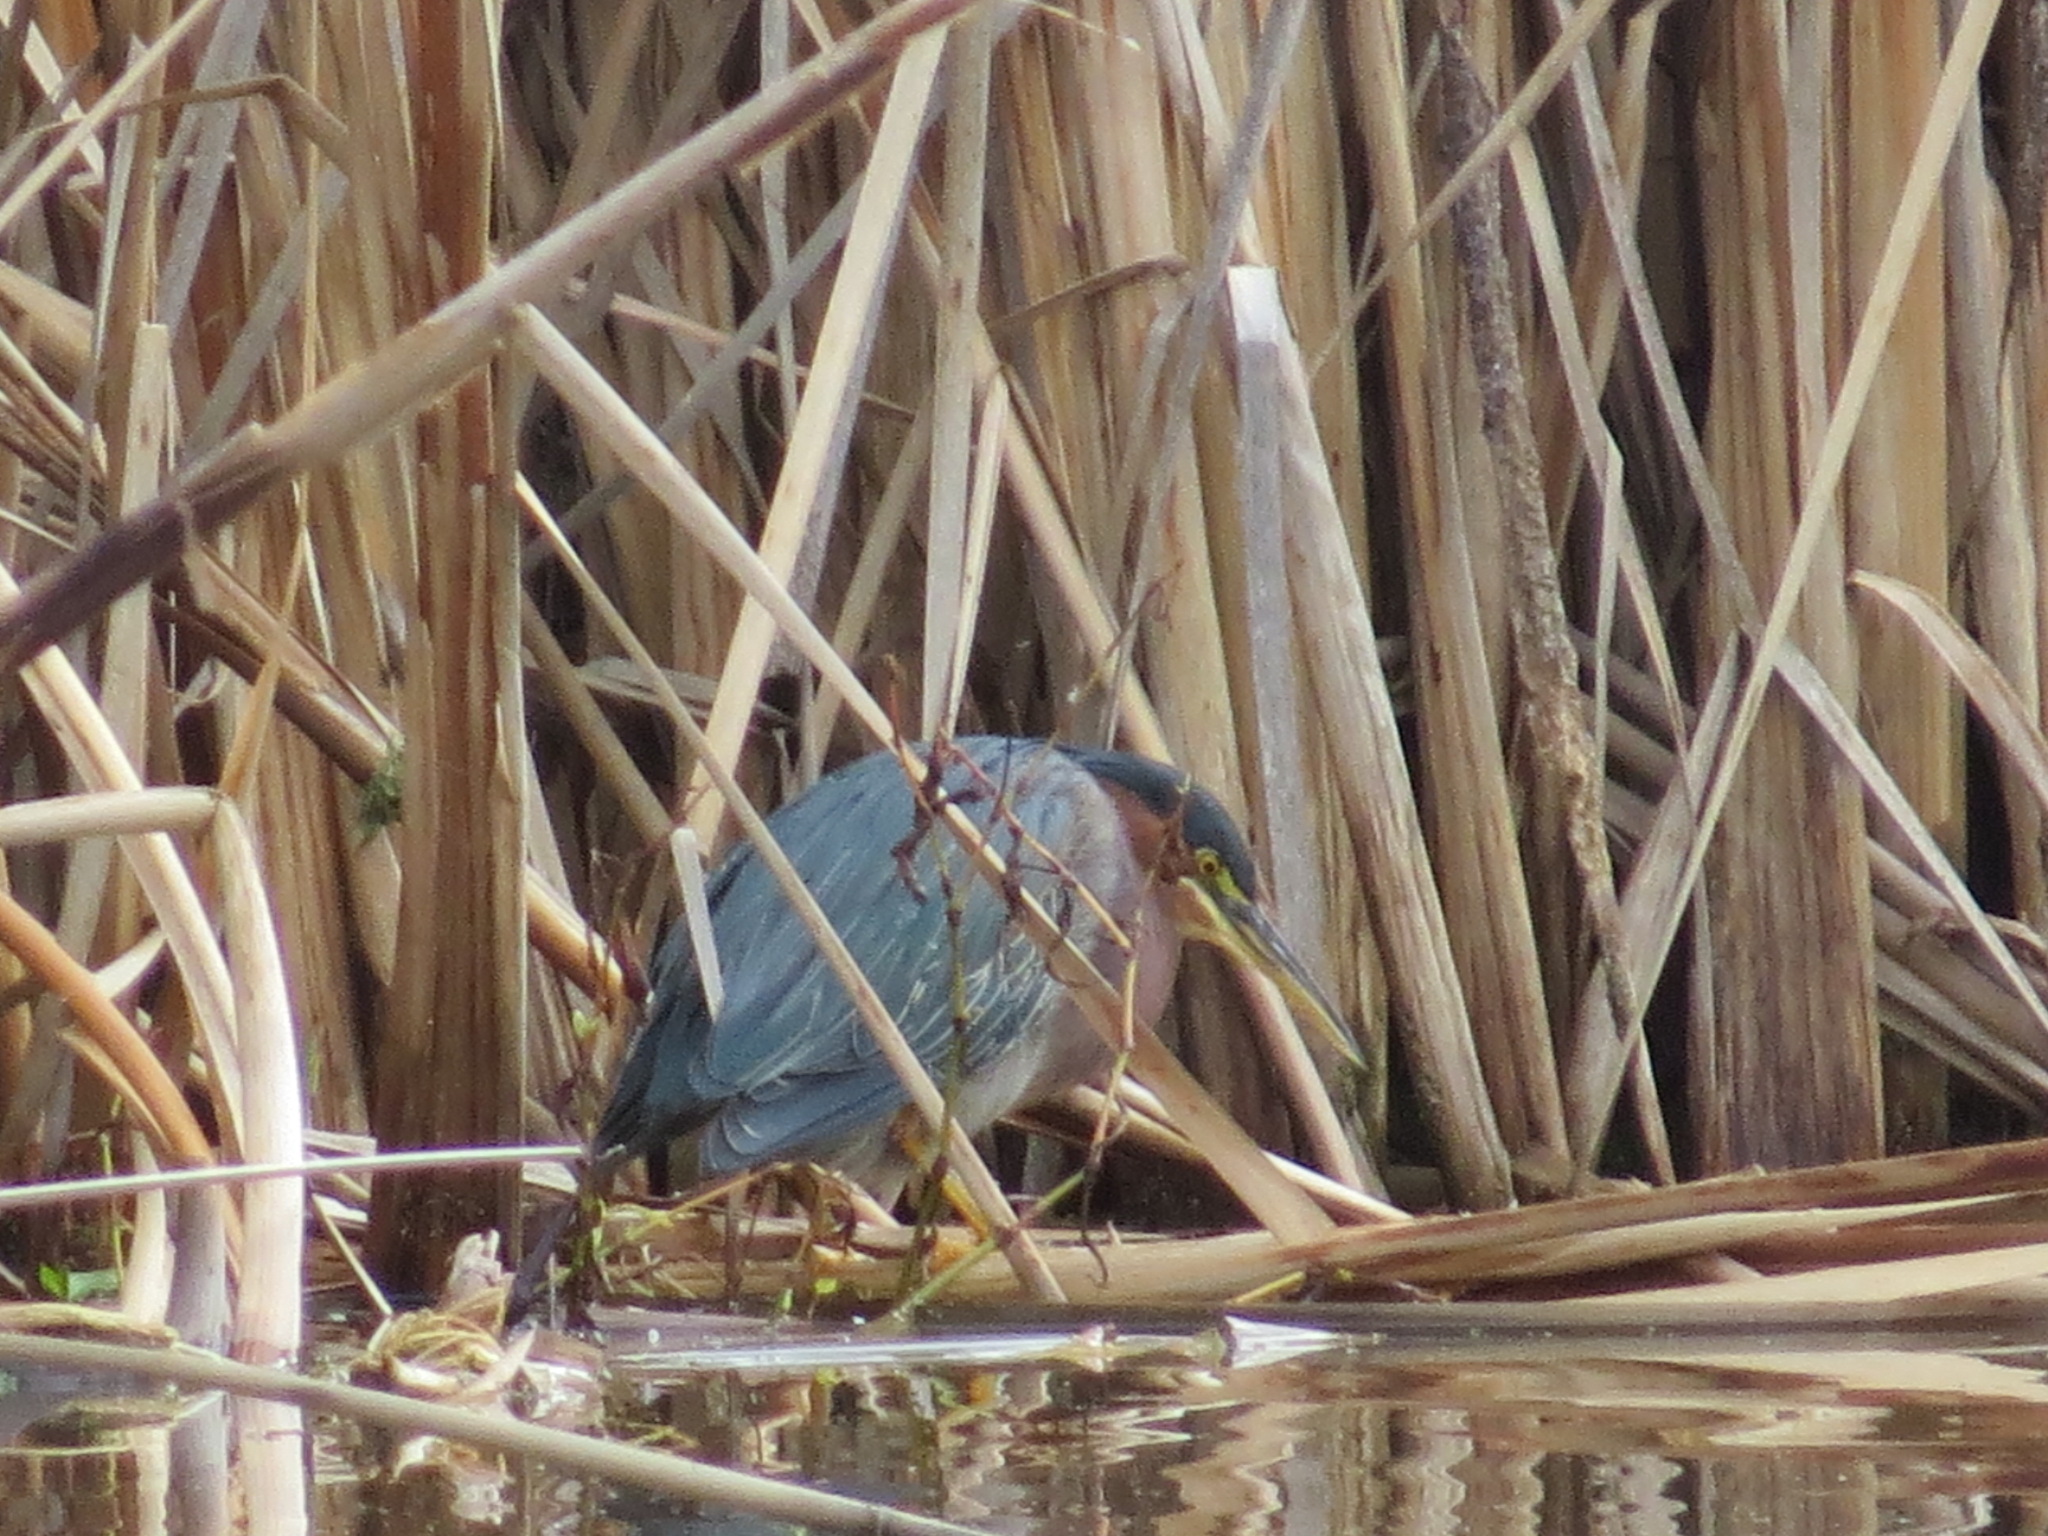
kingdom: Animalia
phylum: Chordata
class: Aves
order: Pelecaniformes
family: Ardeidae
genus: Butorides
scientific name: Butorides virescens
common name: Green heron
